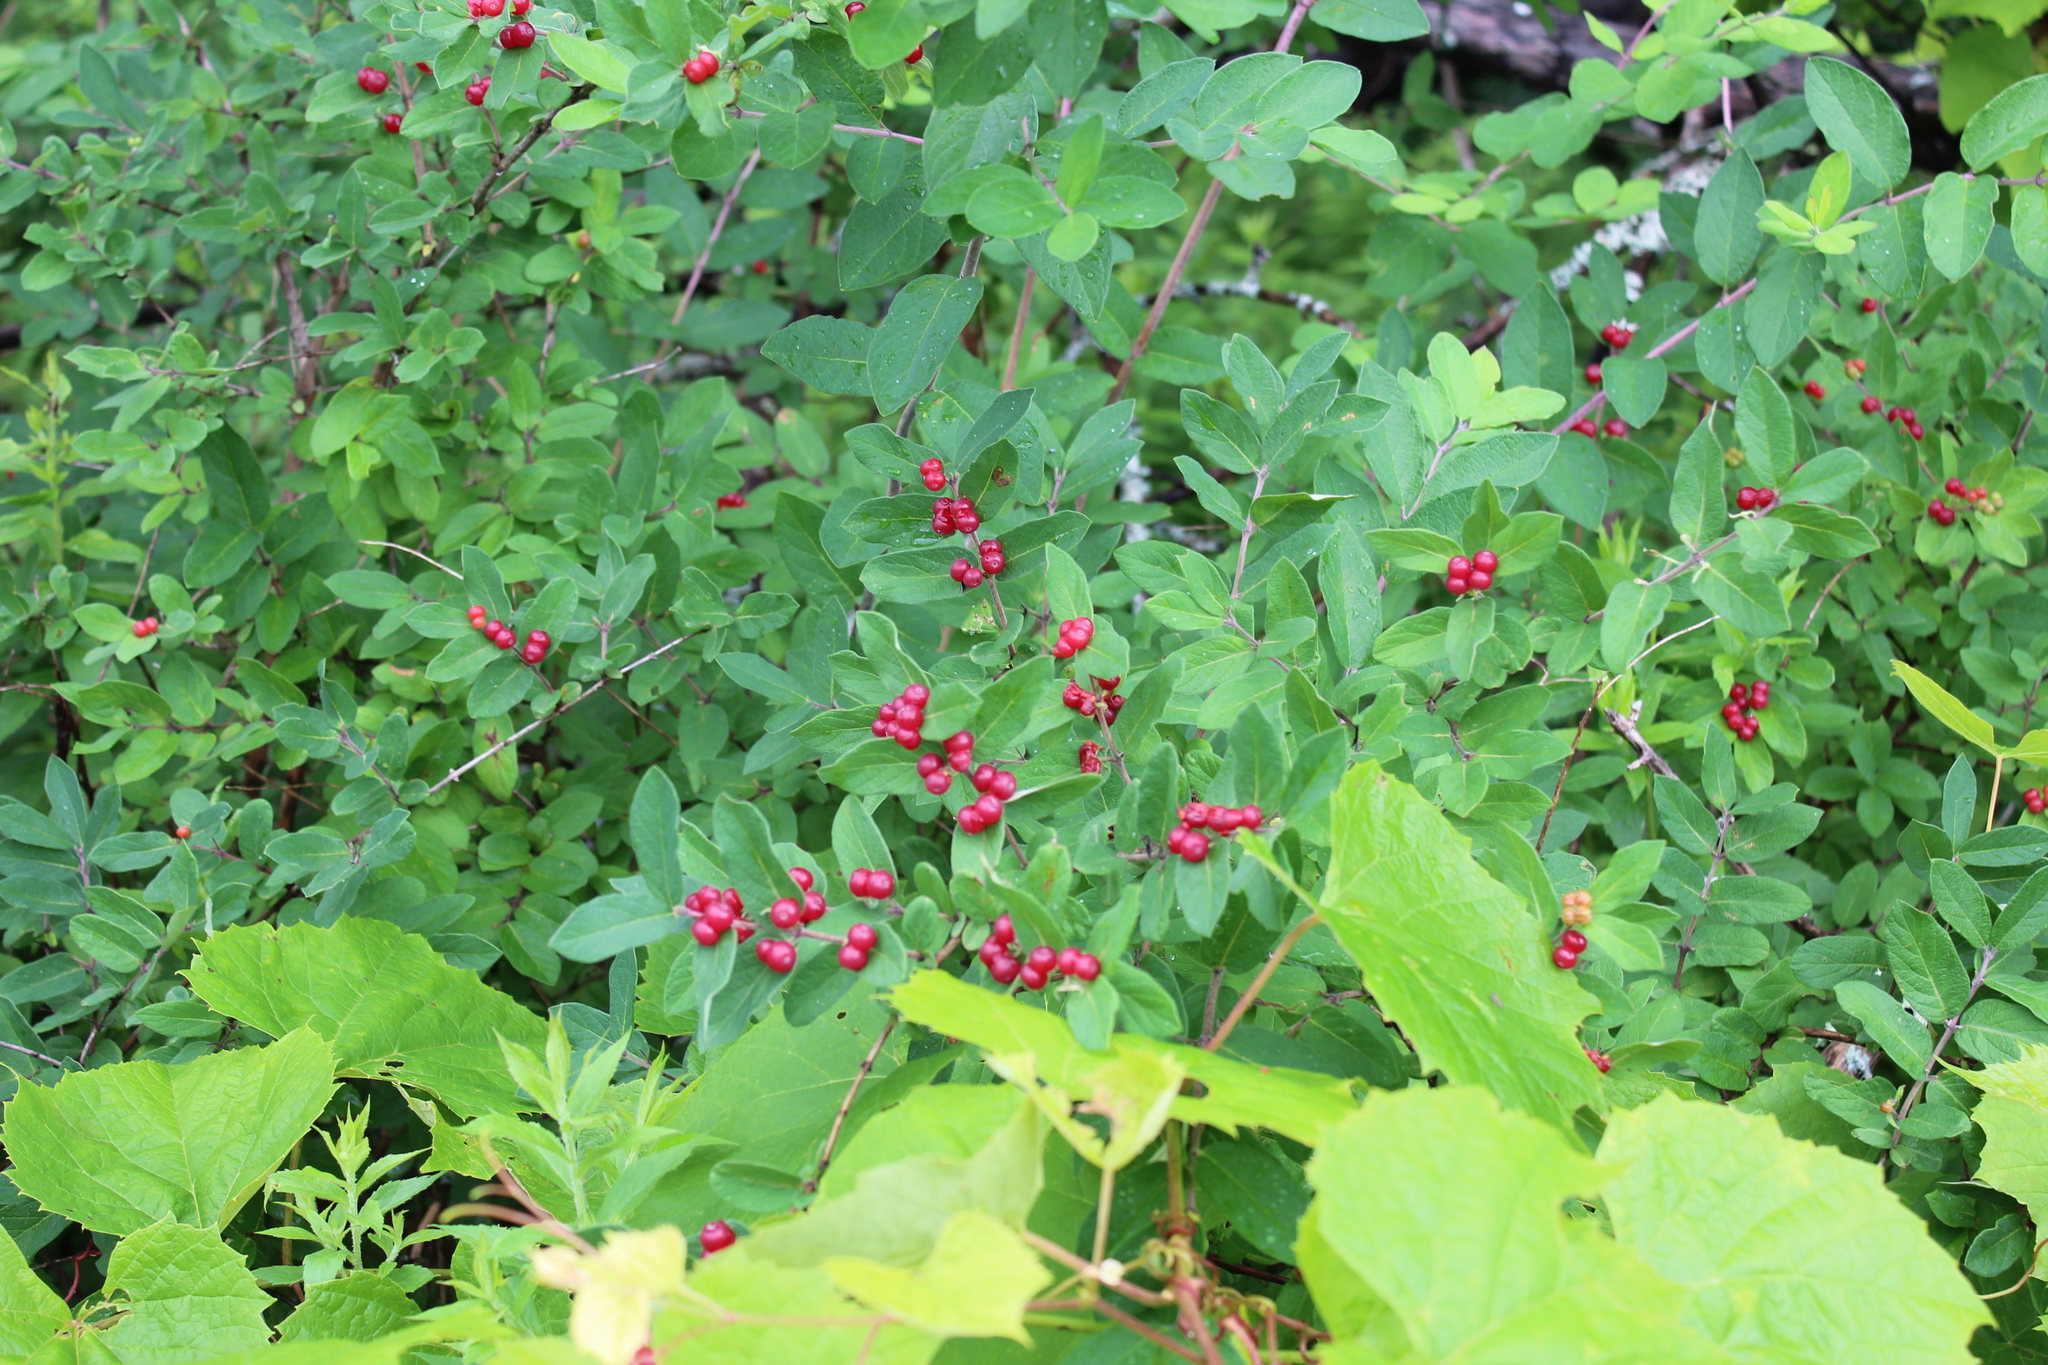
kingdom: Plantae
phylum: Tracheophyta
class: Magnoliopsida
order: Dipsacales
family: Caprifoliaceae
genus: Lonicera
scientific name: Lonicera morrowii
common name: Morrow's honeysuckle
